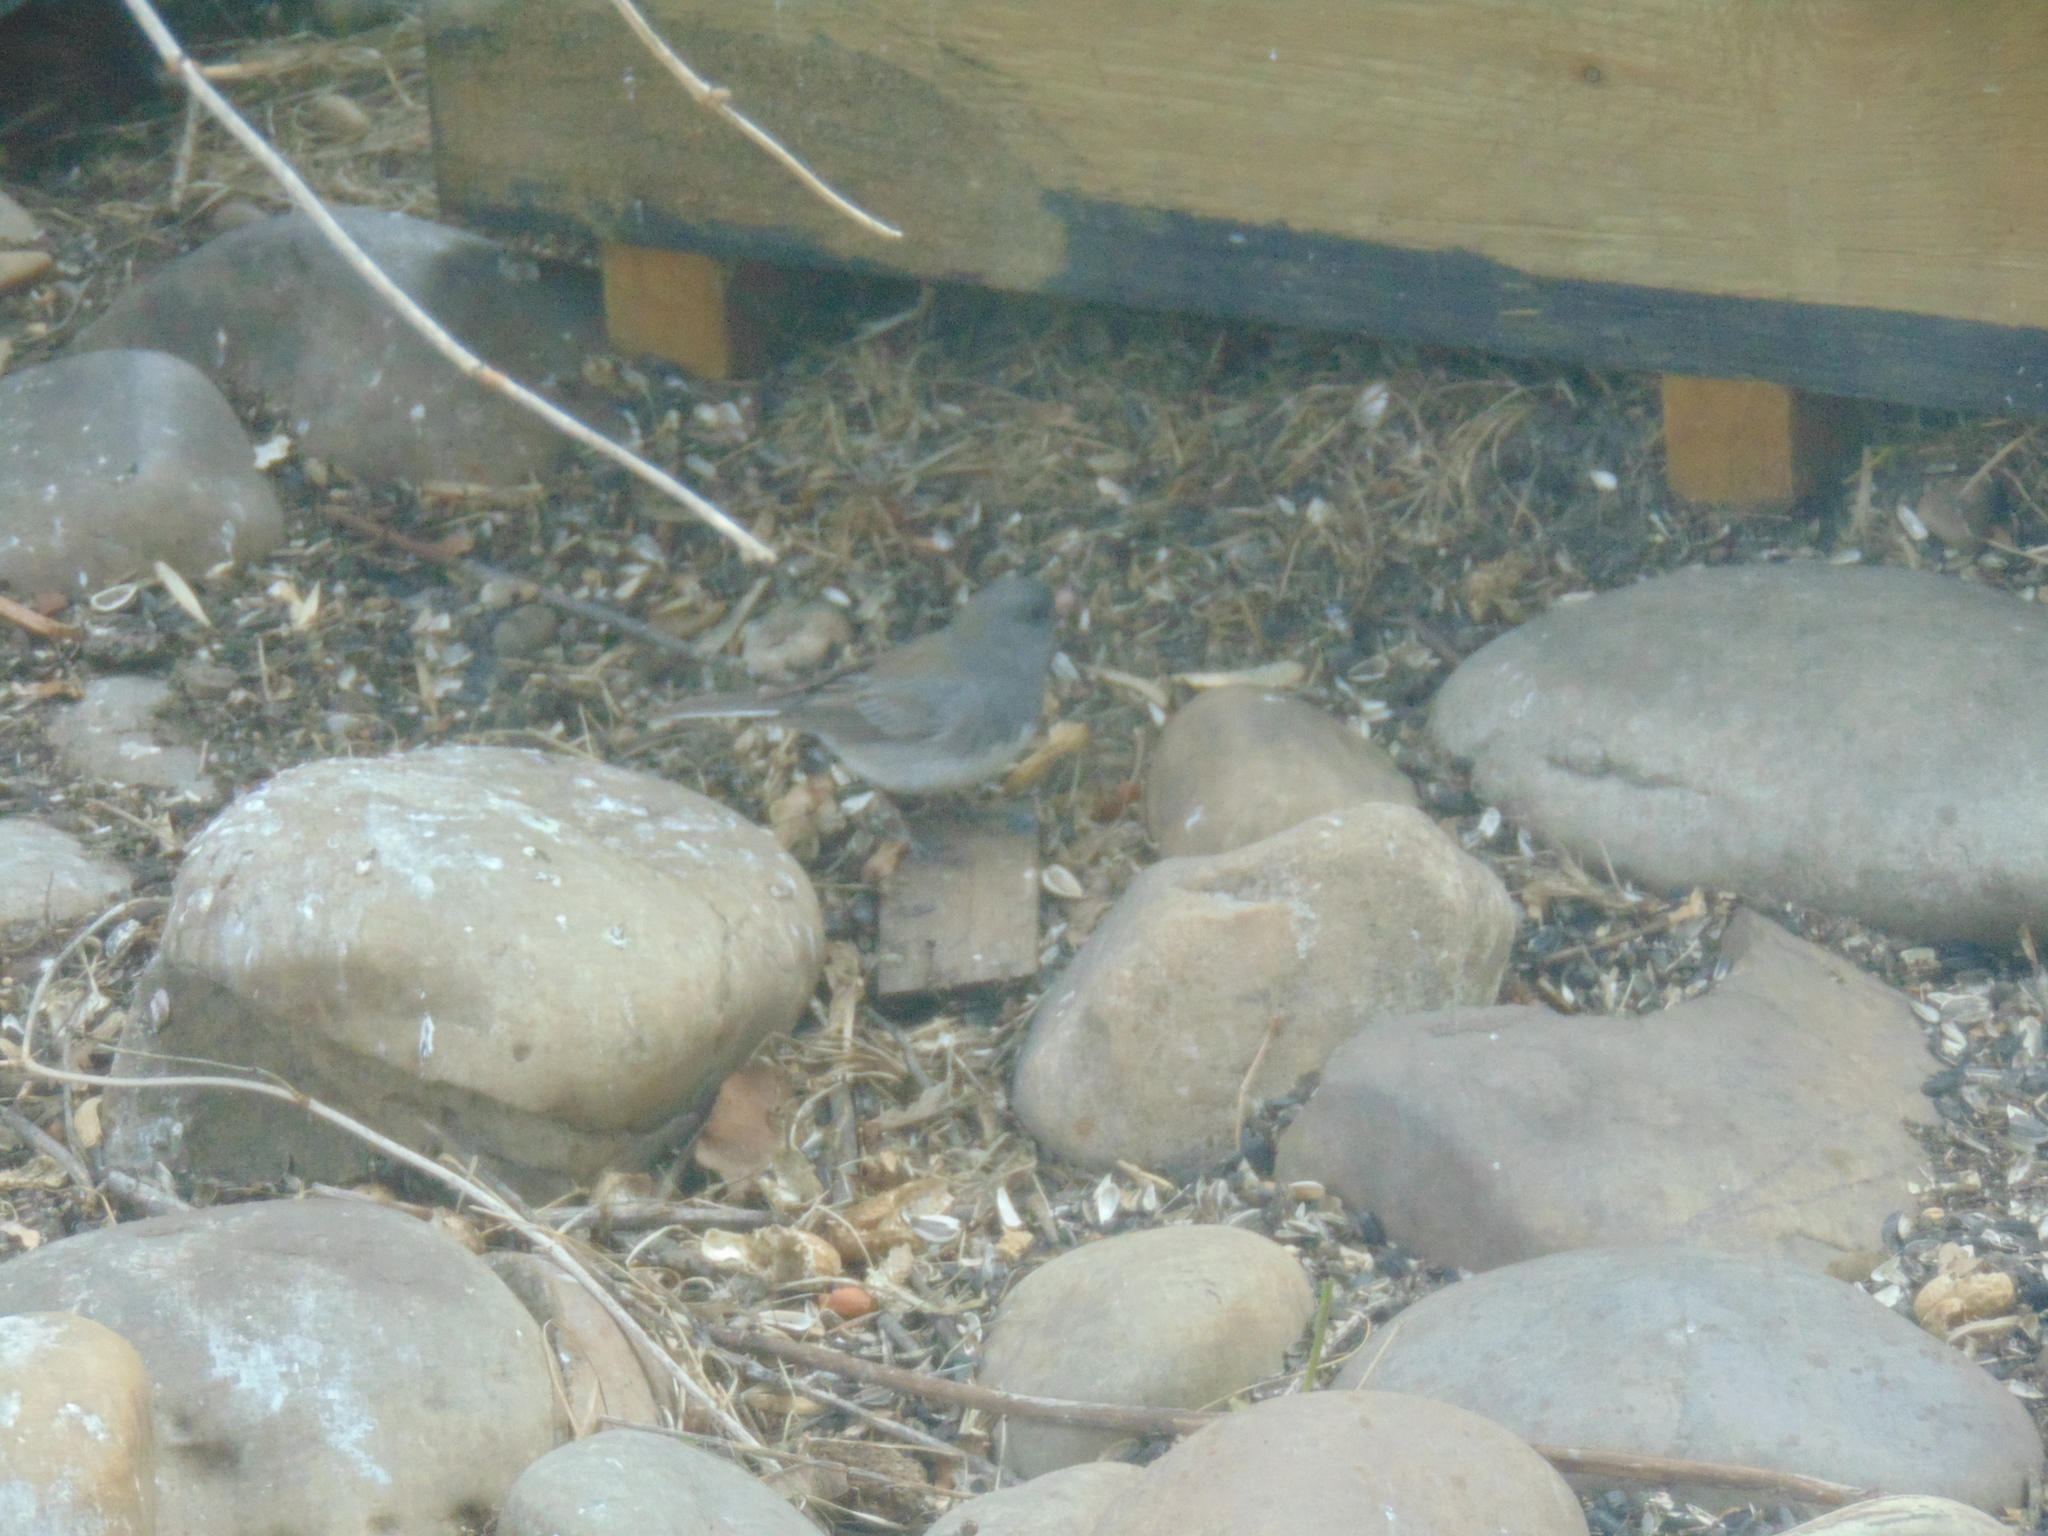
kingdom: Animalia
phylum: Chordata
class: Aves
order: Passeriformes
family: Passerellidae
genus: Junco
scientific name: Junco hyemalis
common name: Dark-eyed junco
